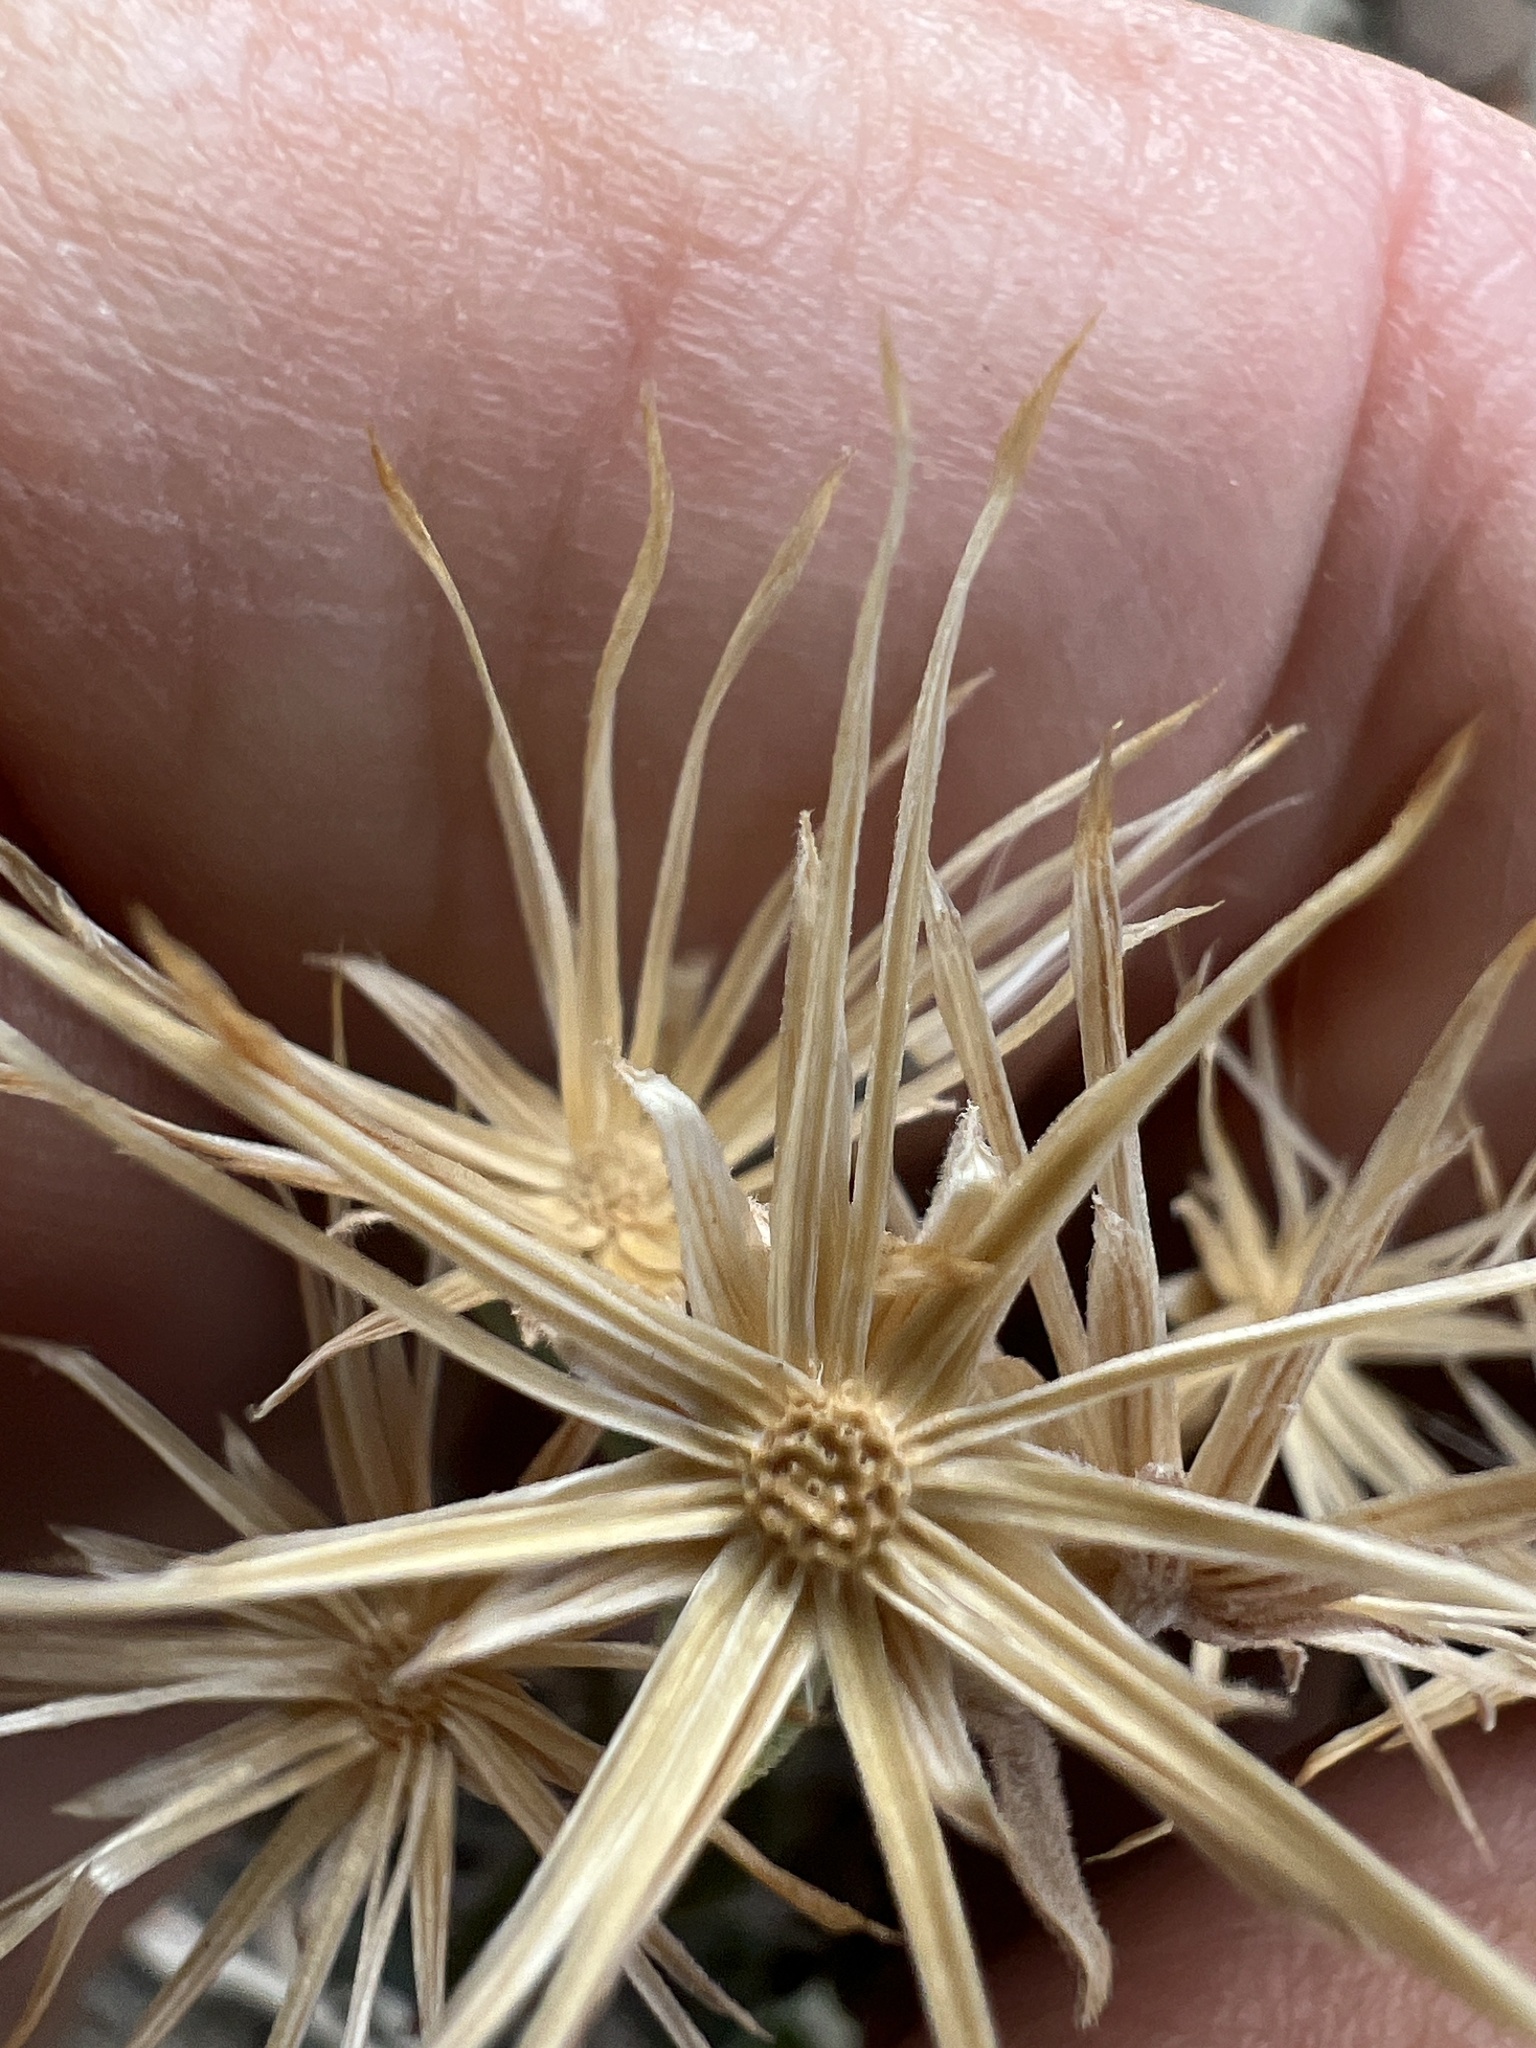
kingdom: Plantae
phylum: Tracheophyta
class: Magnoliopsida
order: Asterales
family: Asteraceae
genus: Brickellia
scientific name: Brickellia oblongifolia
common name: Mojave brickellbush
